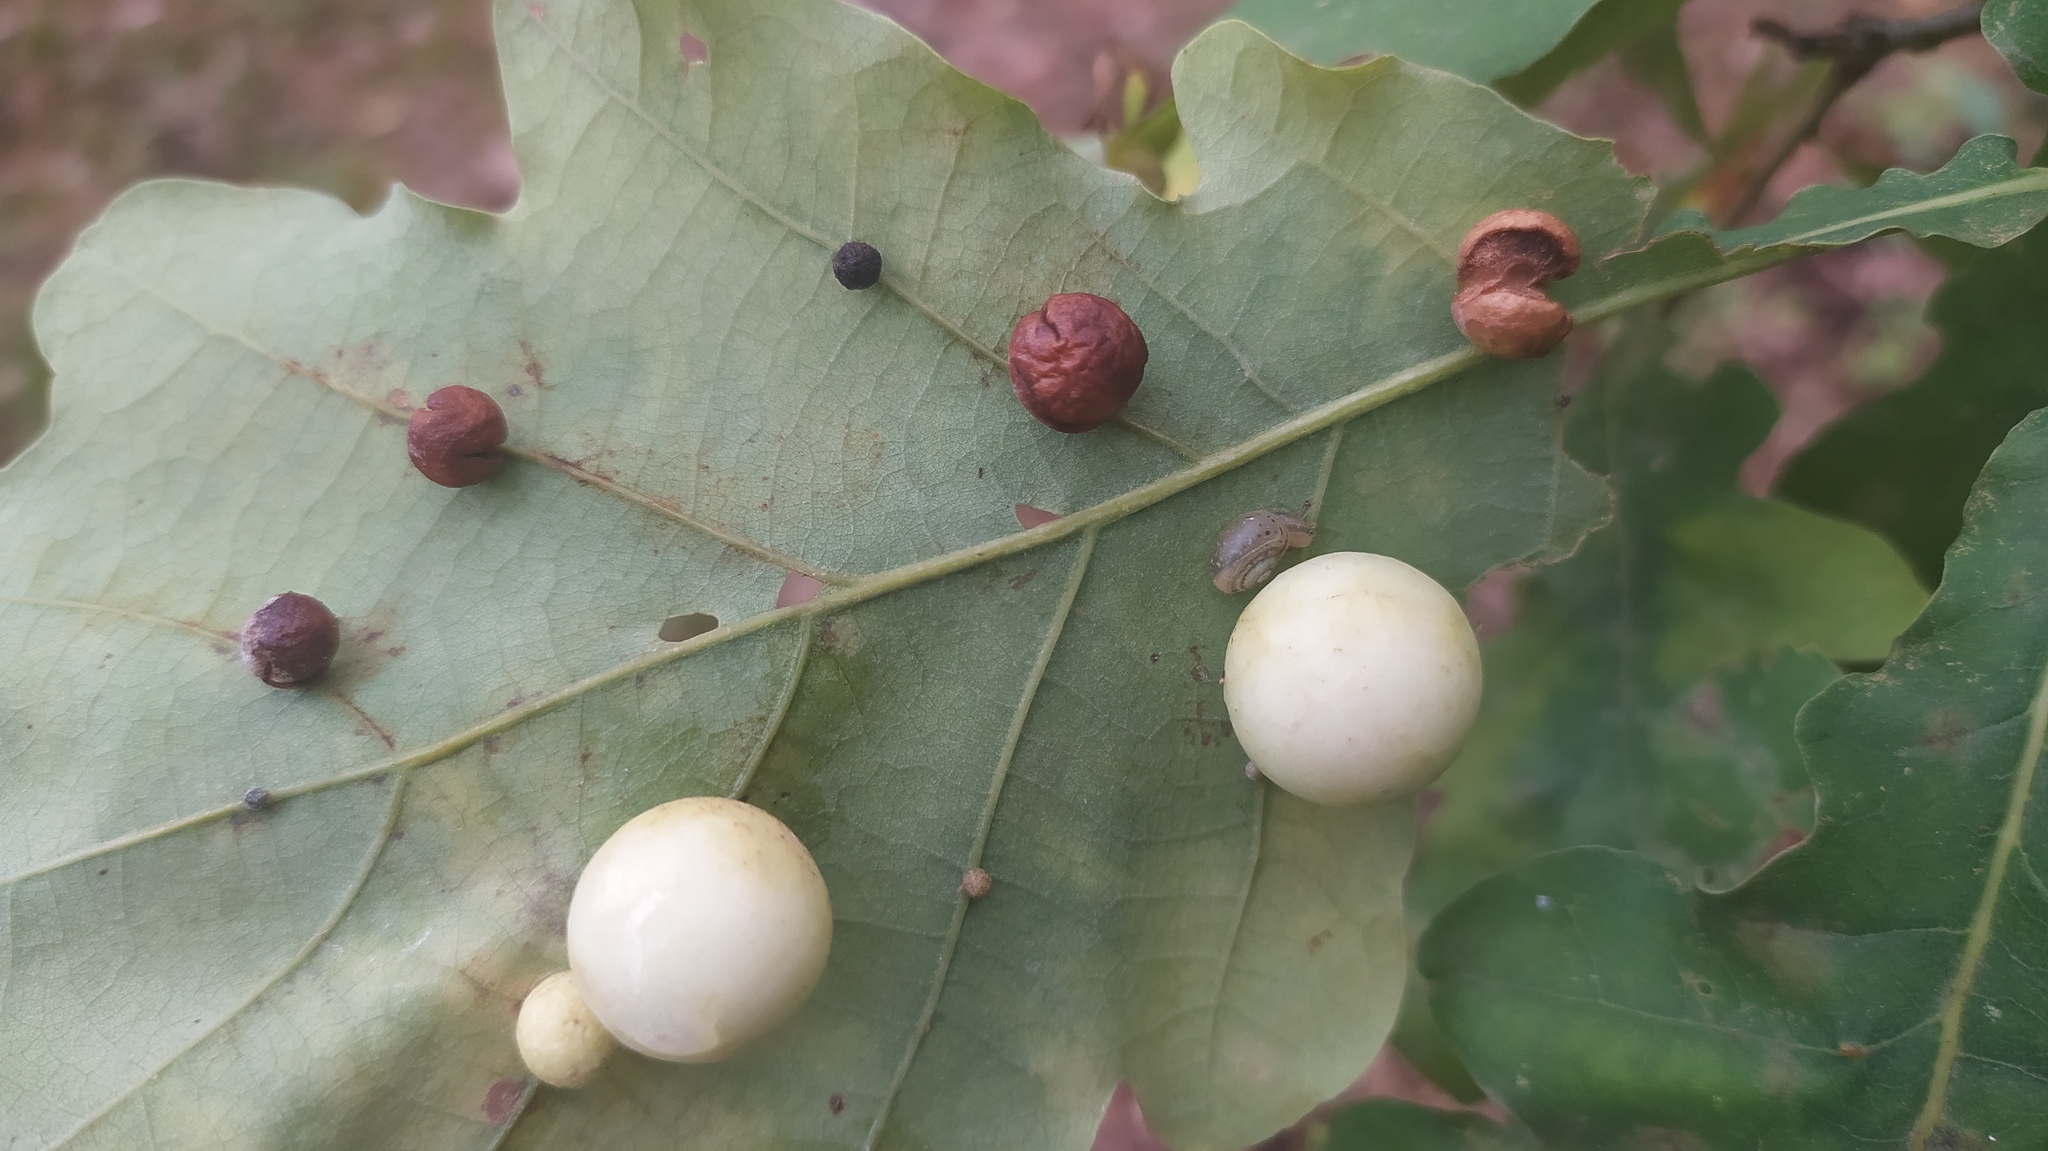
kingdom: Animalia
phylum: Arthropoda
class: Insecta
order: Hymenoptera
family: Cynipidae
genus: Cynips
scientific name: Cynips quercusfolii
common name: Cherry gall
